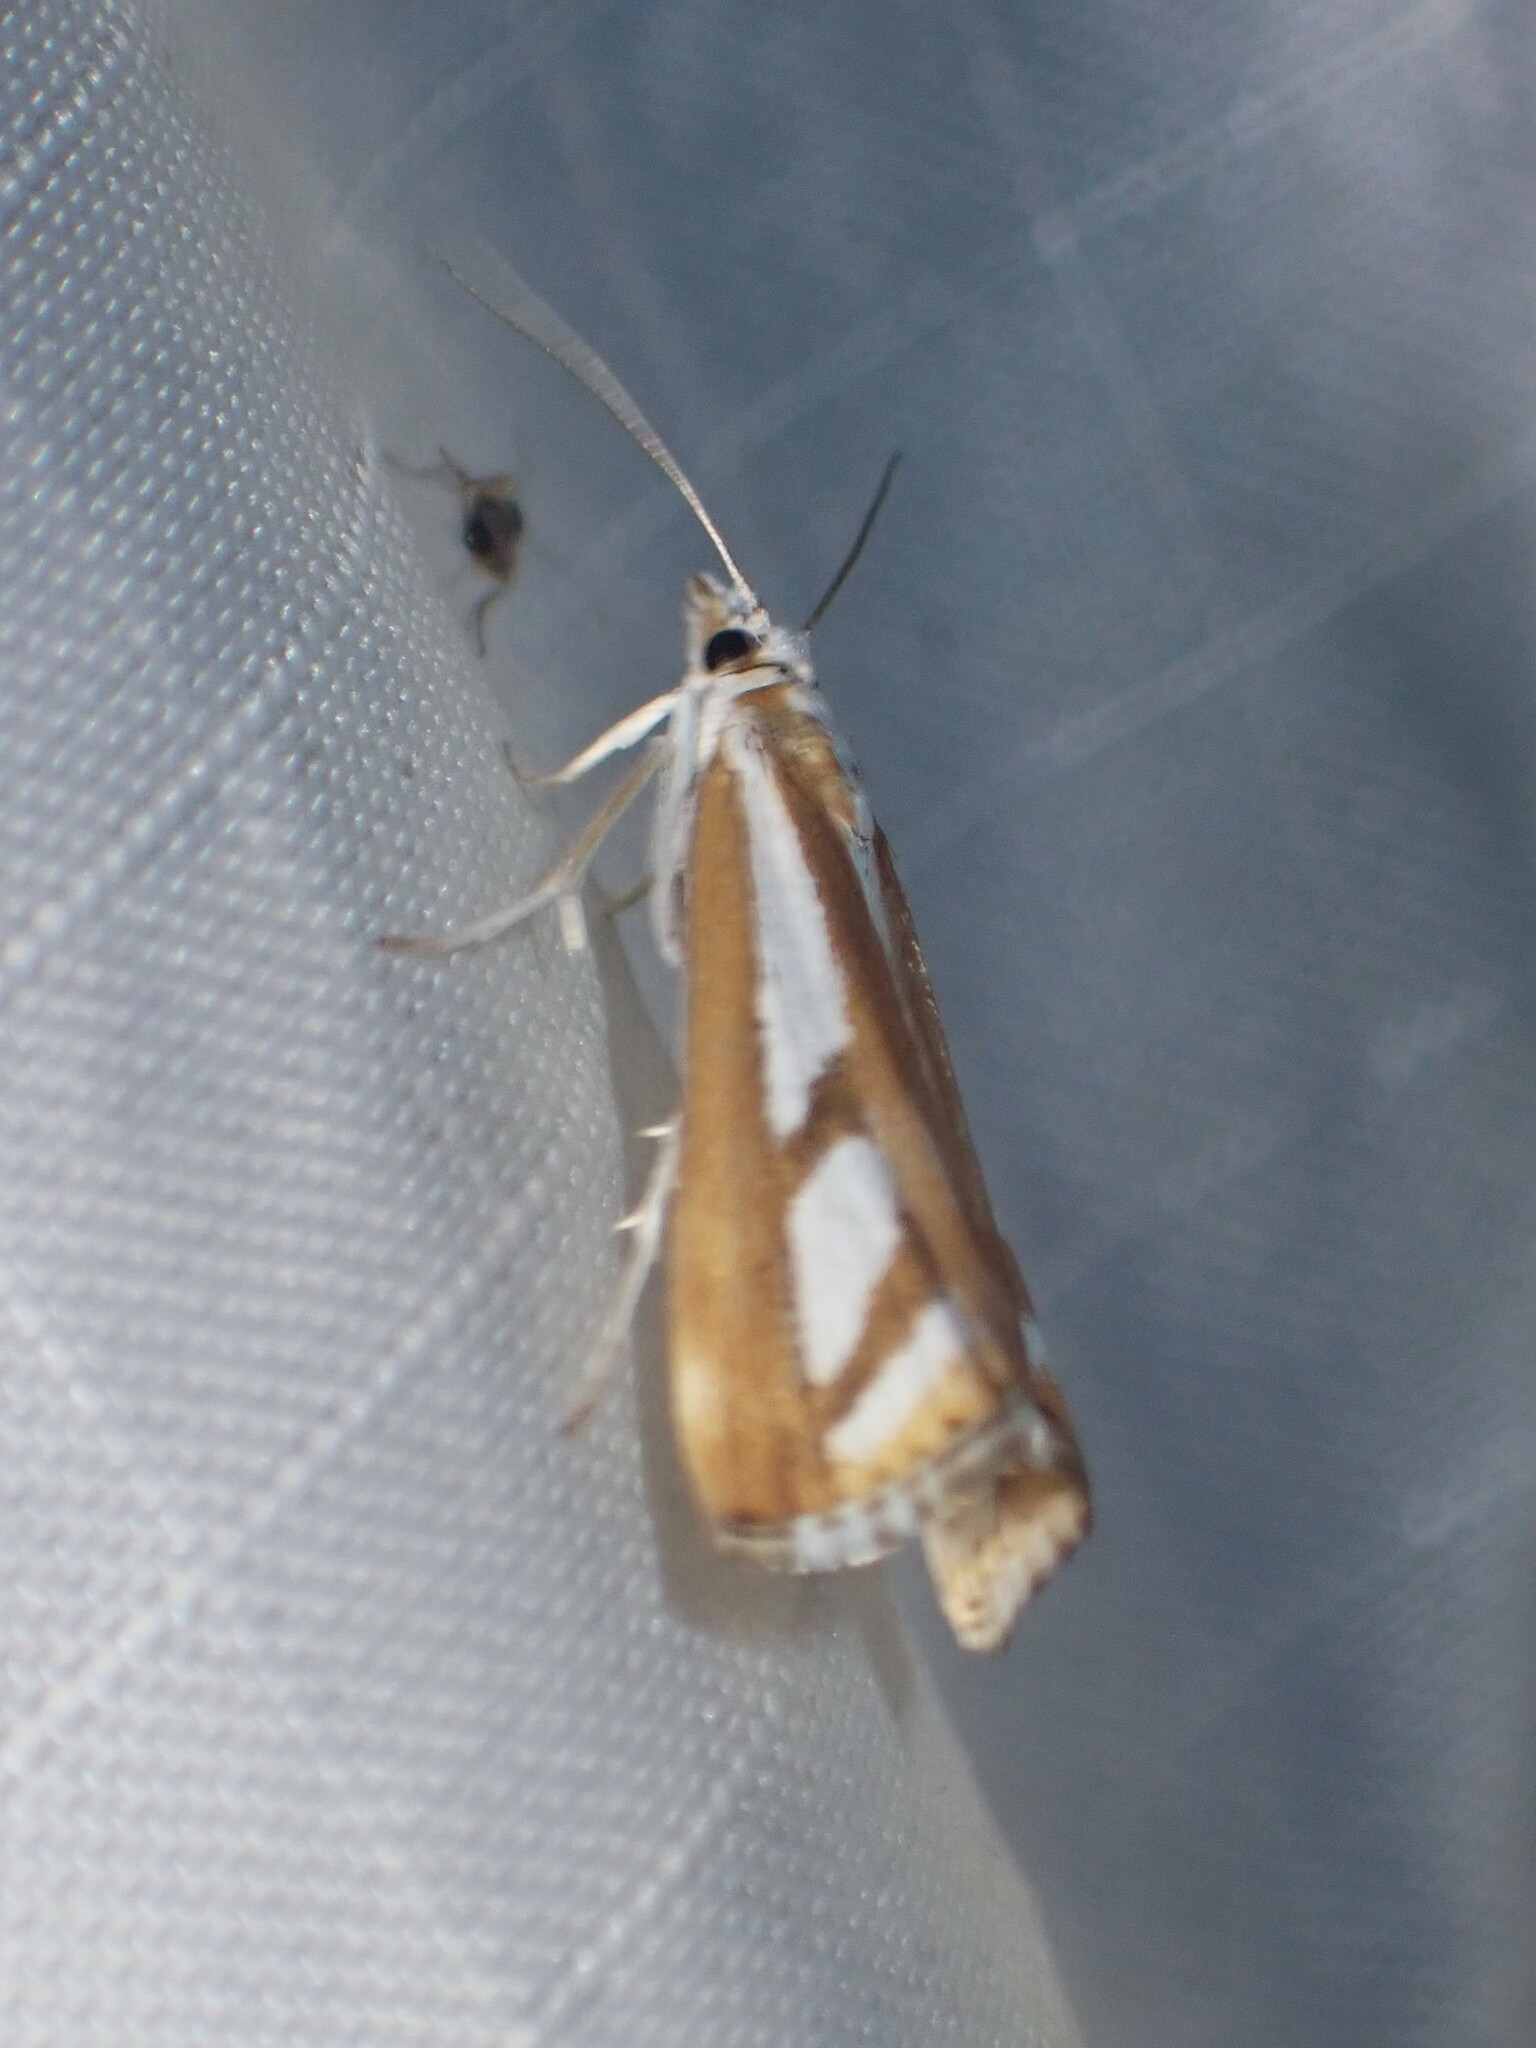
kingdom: Animalia
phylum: Arthropoda
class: Insecta
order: Lepidoptera
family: Crambidae
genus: Catoptria
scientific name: Catoptria latiradiellus
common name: Two-banded catoptria moth
